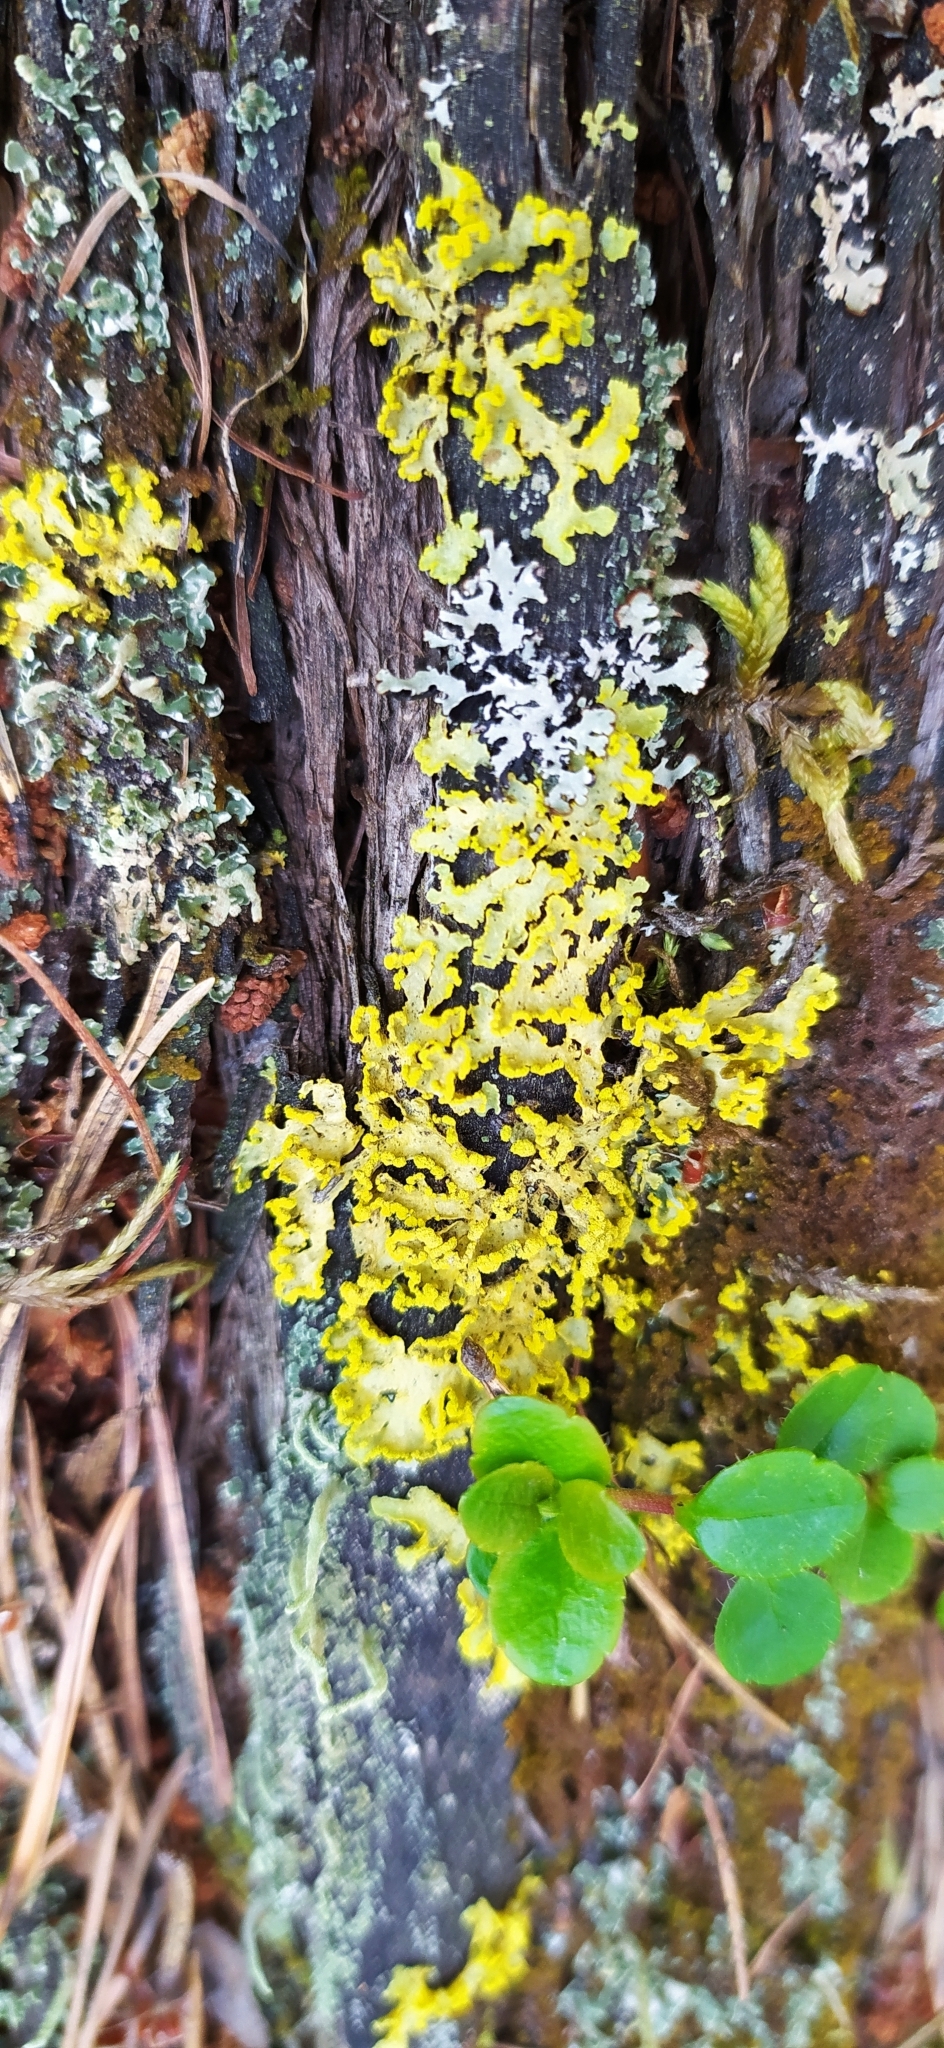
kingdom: Fungi
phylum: Ascomycota
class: Lecanoromycetes
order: Lecanorales
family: Parmeliaceae
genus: Vulpicida
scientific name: Vulpicida pinastri
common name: Powdered sunshine lichen
